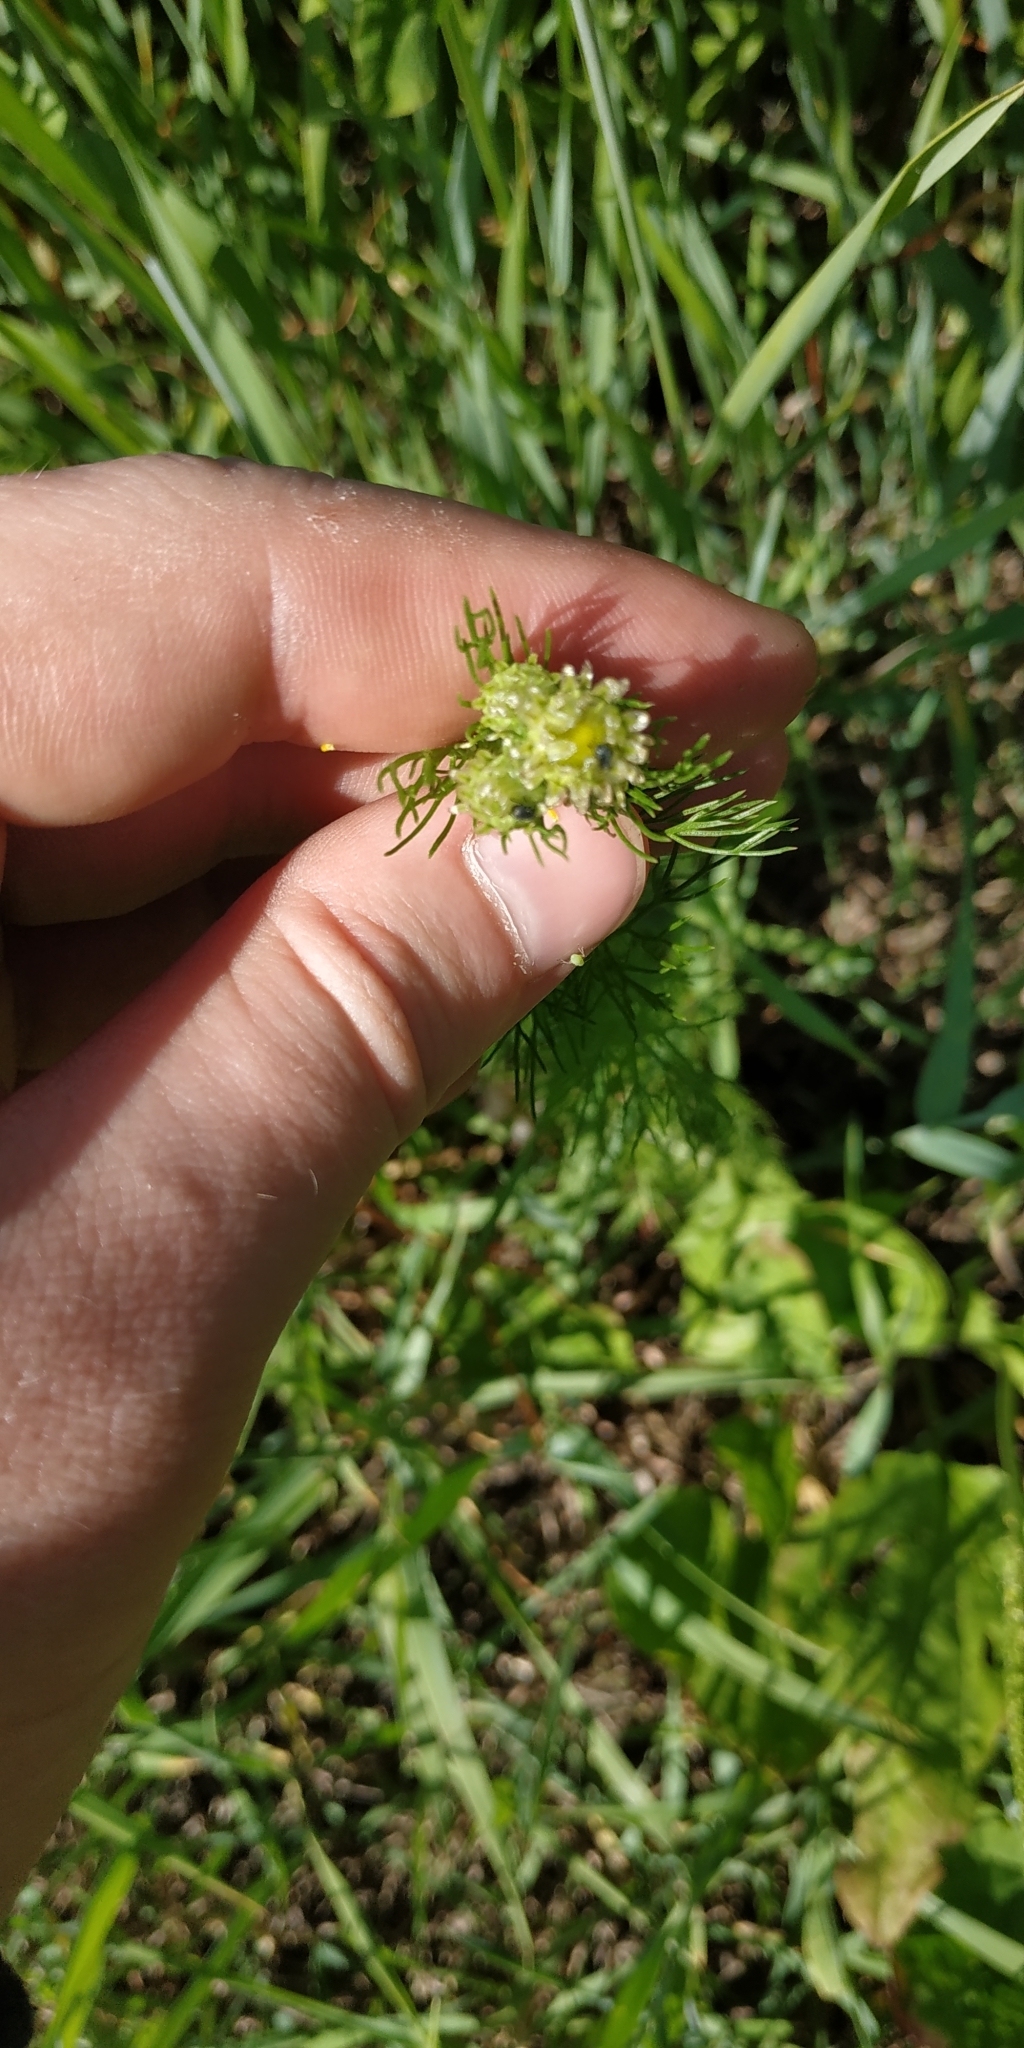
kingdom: Plantae
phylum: Tracheophyta
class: Magnoliopsida
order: Asterales
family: Asteraceae
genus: Tripleurospermum
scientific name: Tripleurospermum inodorum
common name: Scentless mayweed
